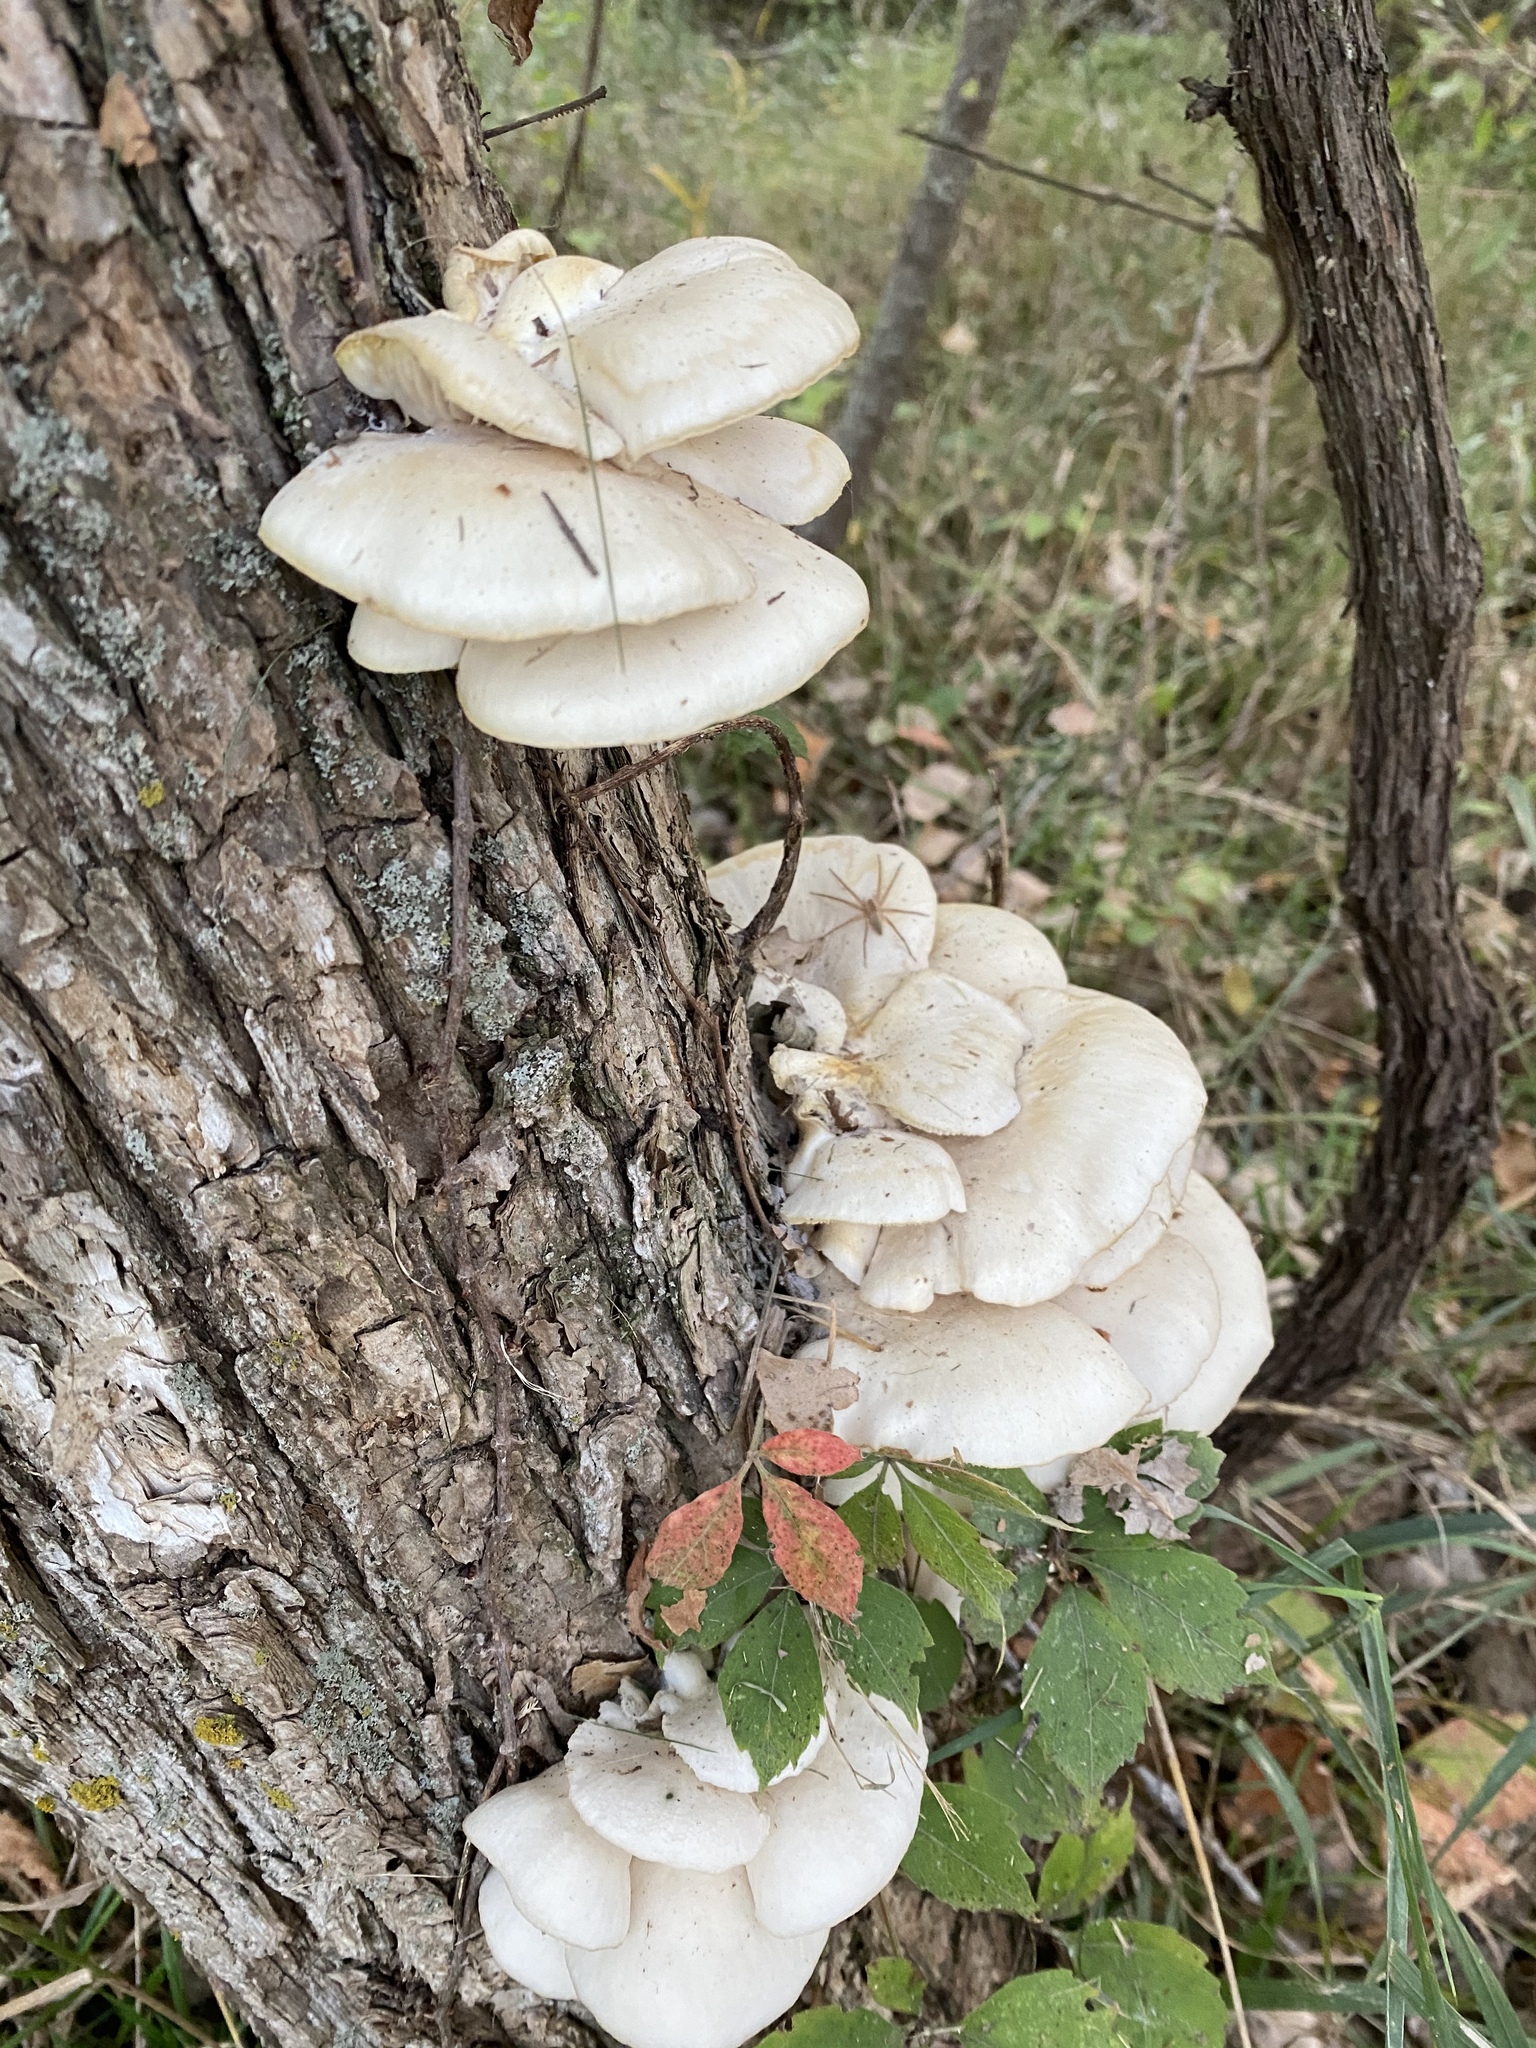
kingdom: Fungi
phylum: Basidiomycota
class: Agaricomycetes
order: Agaricales
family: Pleurotaceae
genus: Pleurotus
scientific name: Pleurotus pulmonarius
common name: Pale oyster
